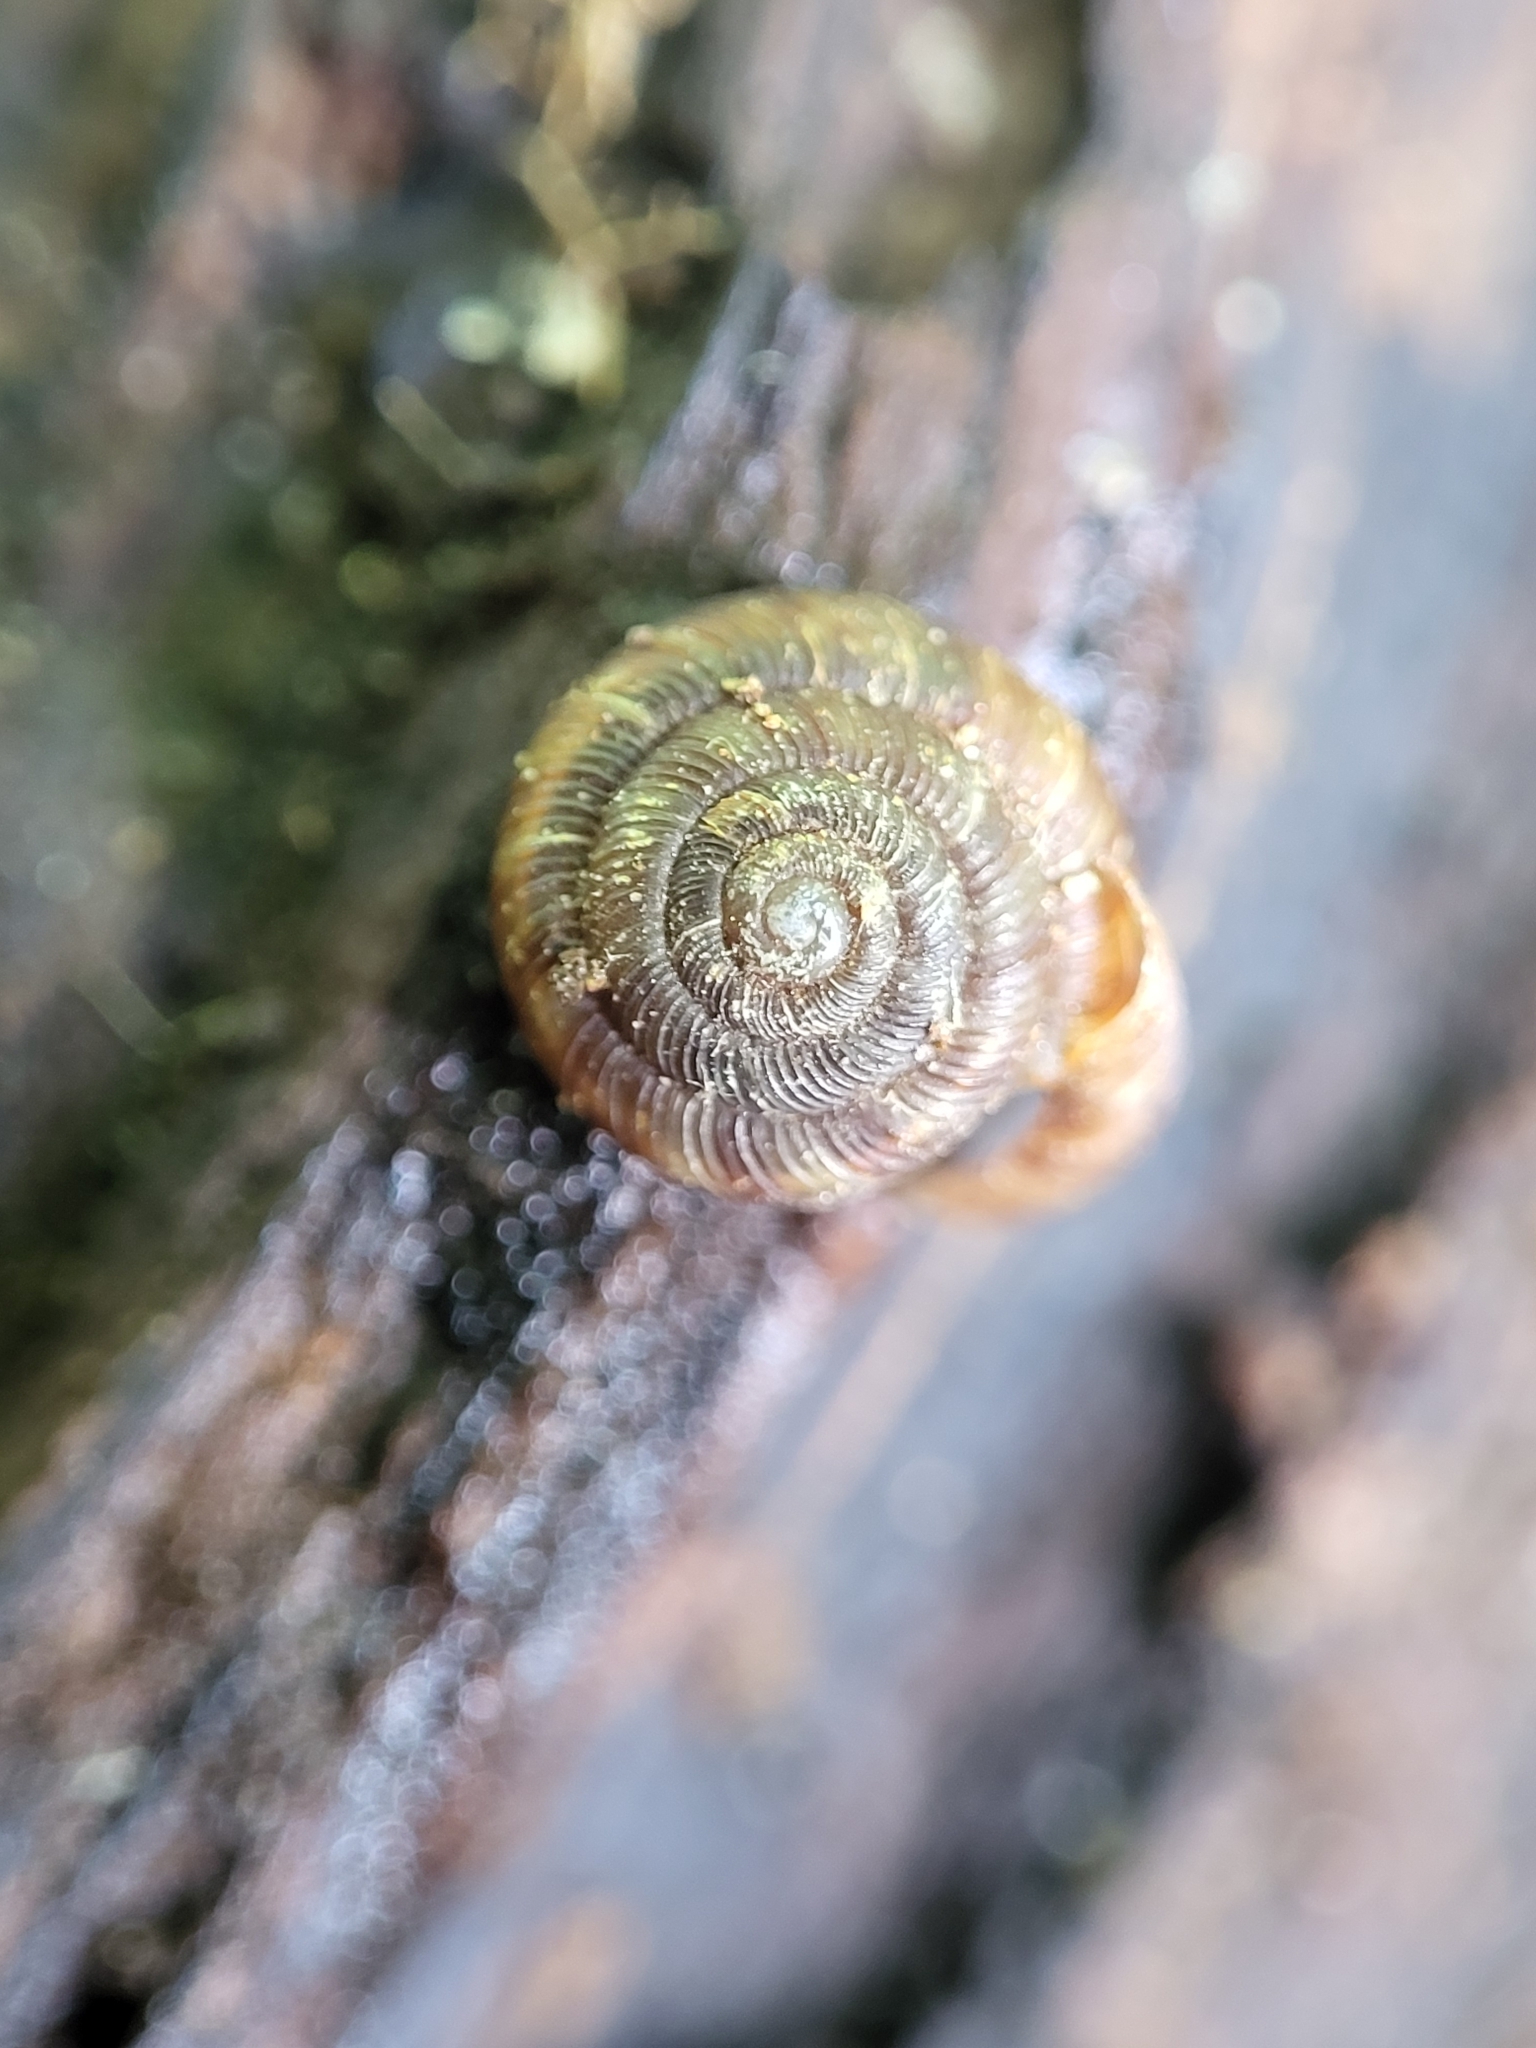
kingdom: Animalia
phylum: Mollusca
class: Gastropoda
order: Stylommatophora
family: Discidae
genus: Discus
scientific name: Discus rotundatus
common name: Rounded snail
